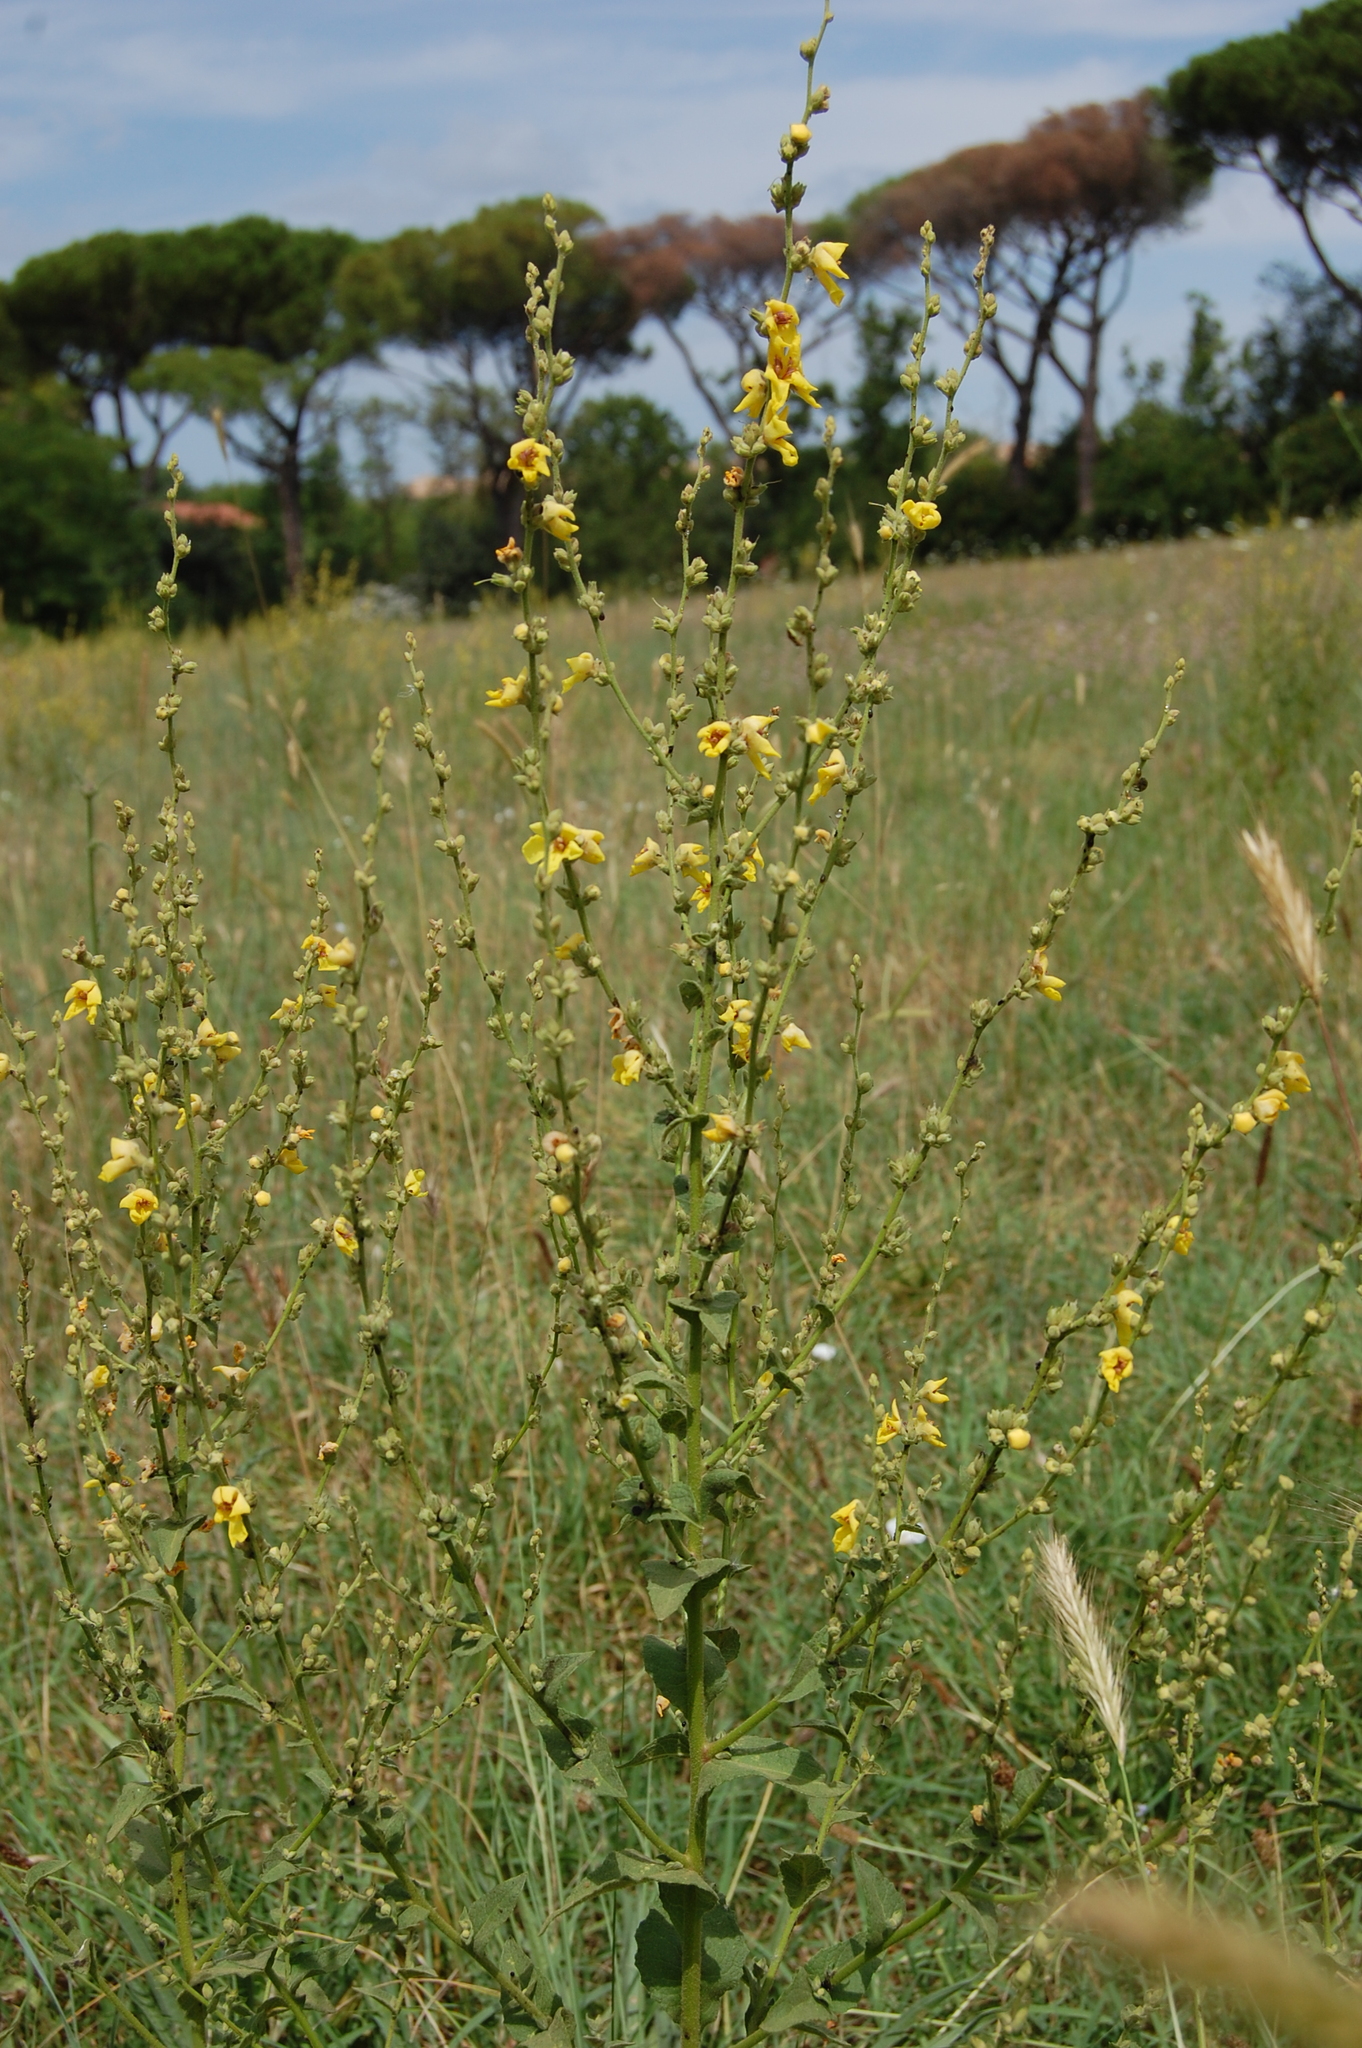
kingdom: Plantae
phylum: Tracheophyta
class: Magnoliopsida
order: Lamiales
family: Scrophulariaceae
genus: Verbascum
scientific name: Verbascum sinuatum
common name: Wavyleaf mullein
